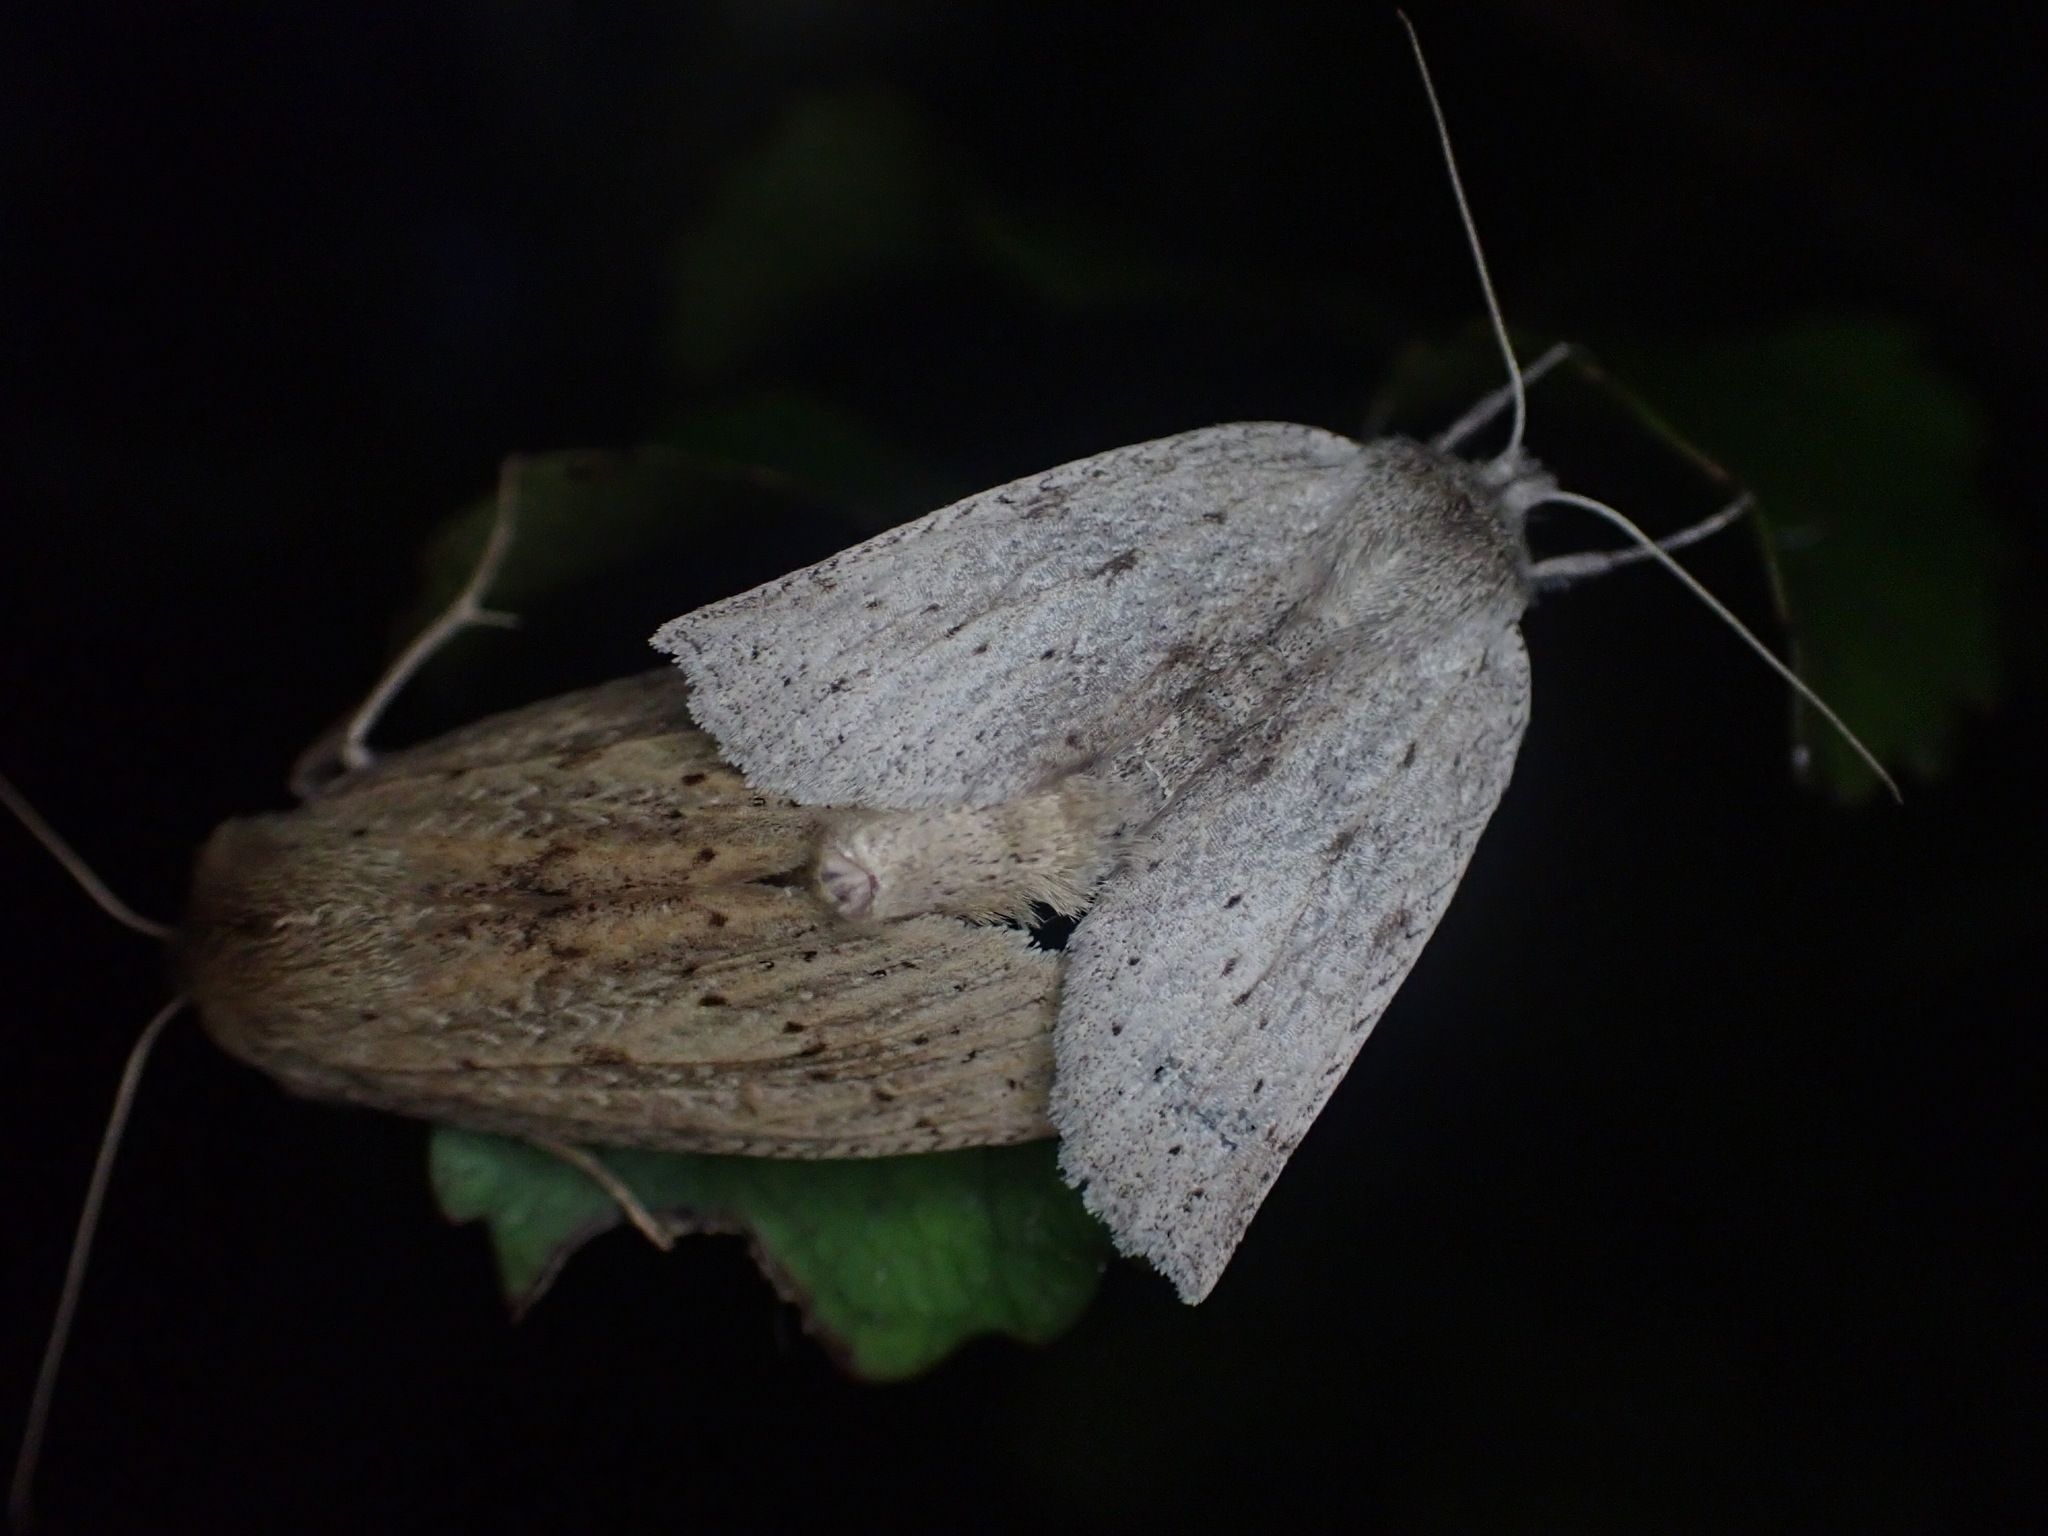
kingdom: Animalia
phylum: Arthropoda
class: Insecta
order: Lepidoptera
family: Geometridae
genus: Declana
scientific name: Declana leptomera
